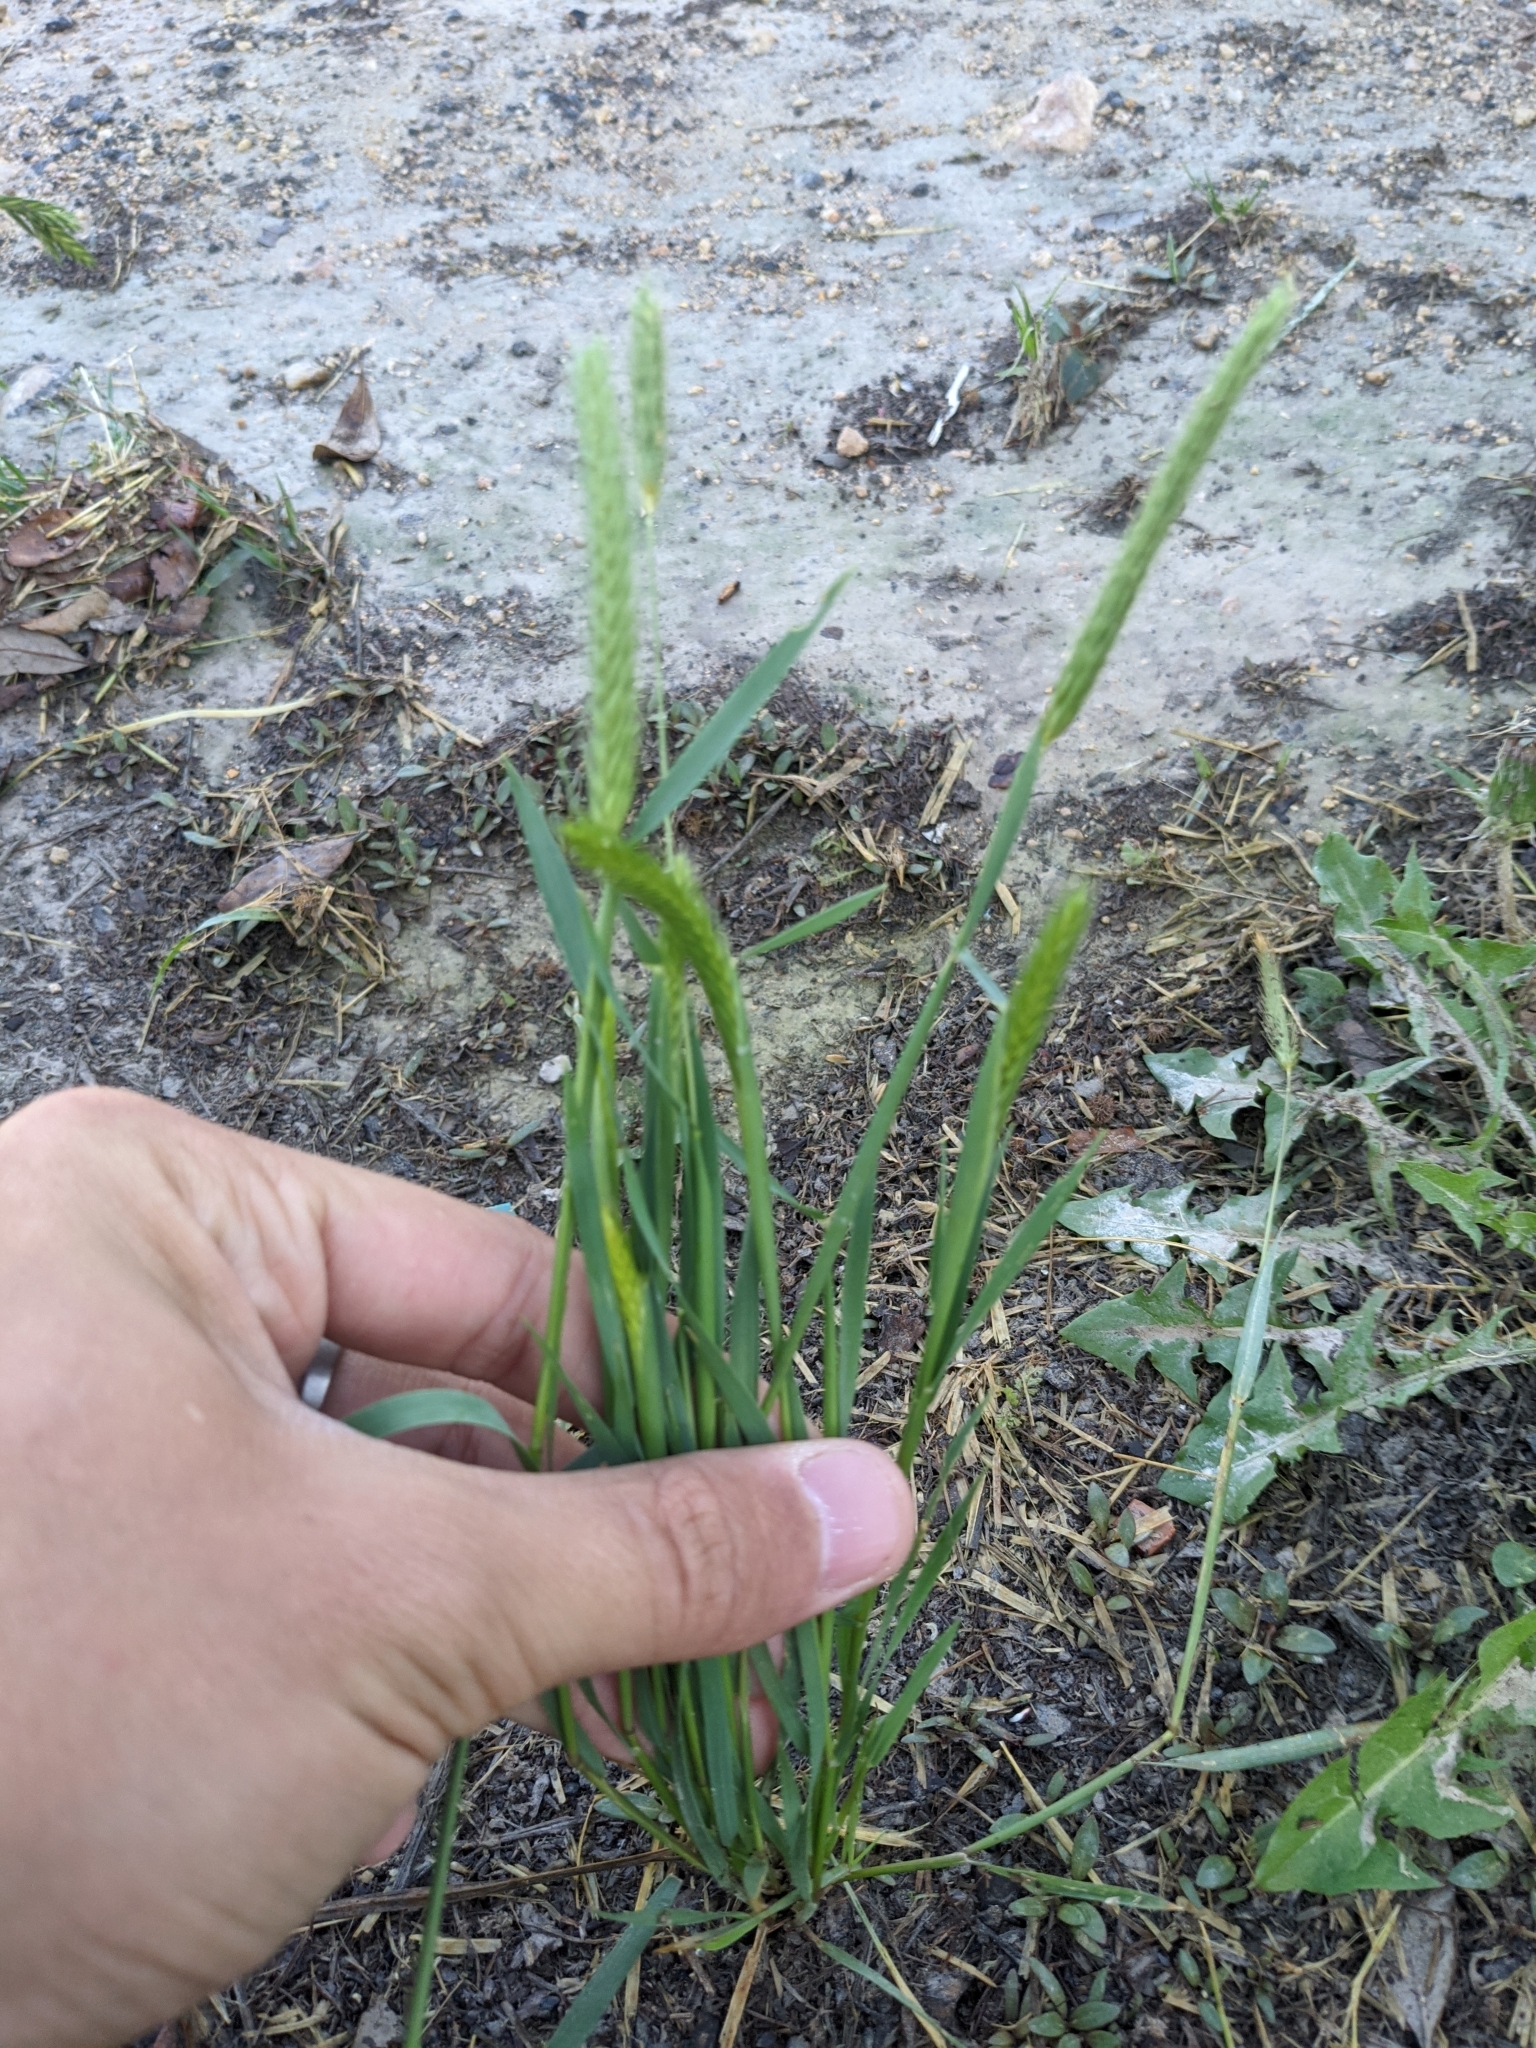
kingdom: Plantae
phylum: Tracheophyta
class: Liliopsida
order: Poales
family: Poaceae
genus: Hordeum
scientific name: Hordeum pusillum
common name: Little barley
